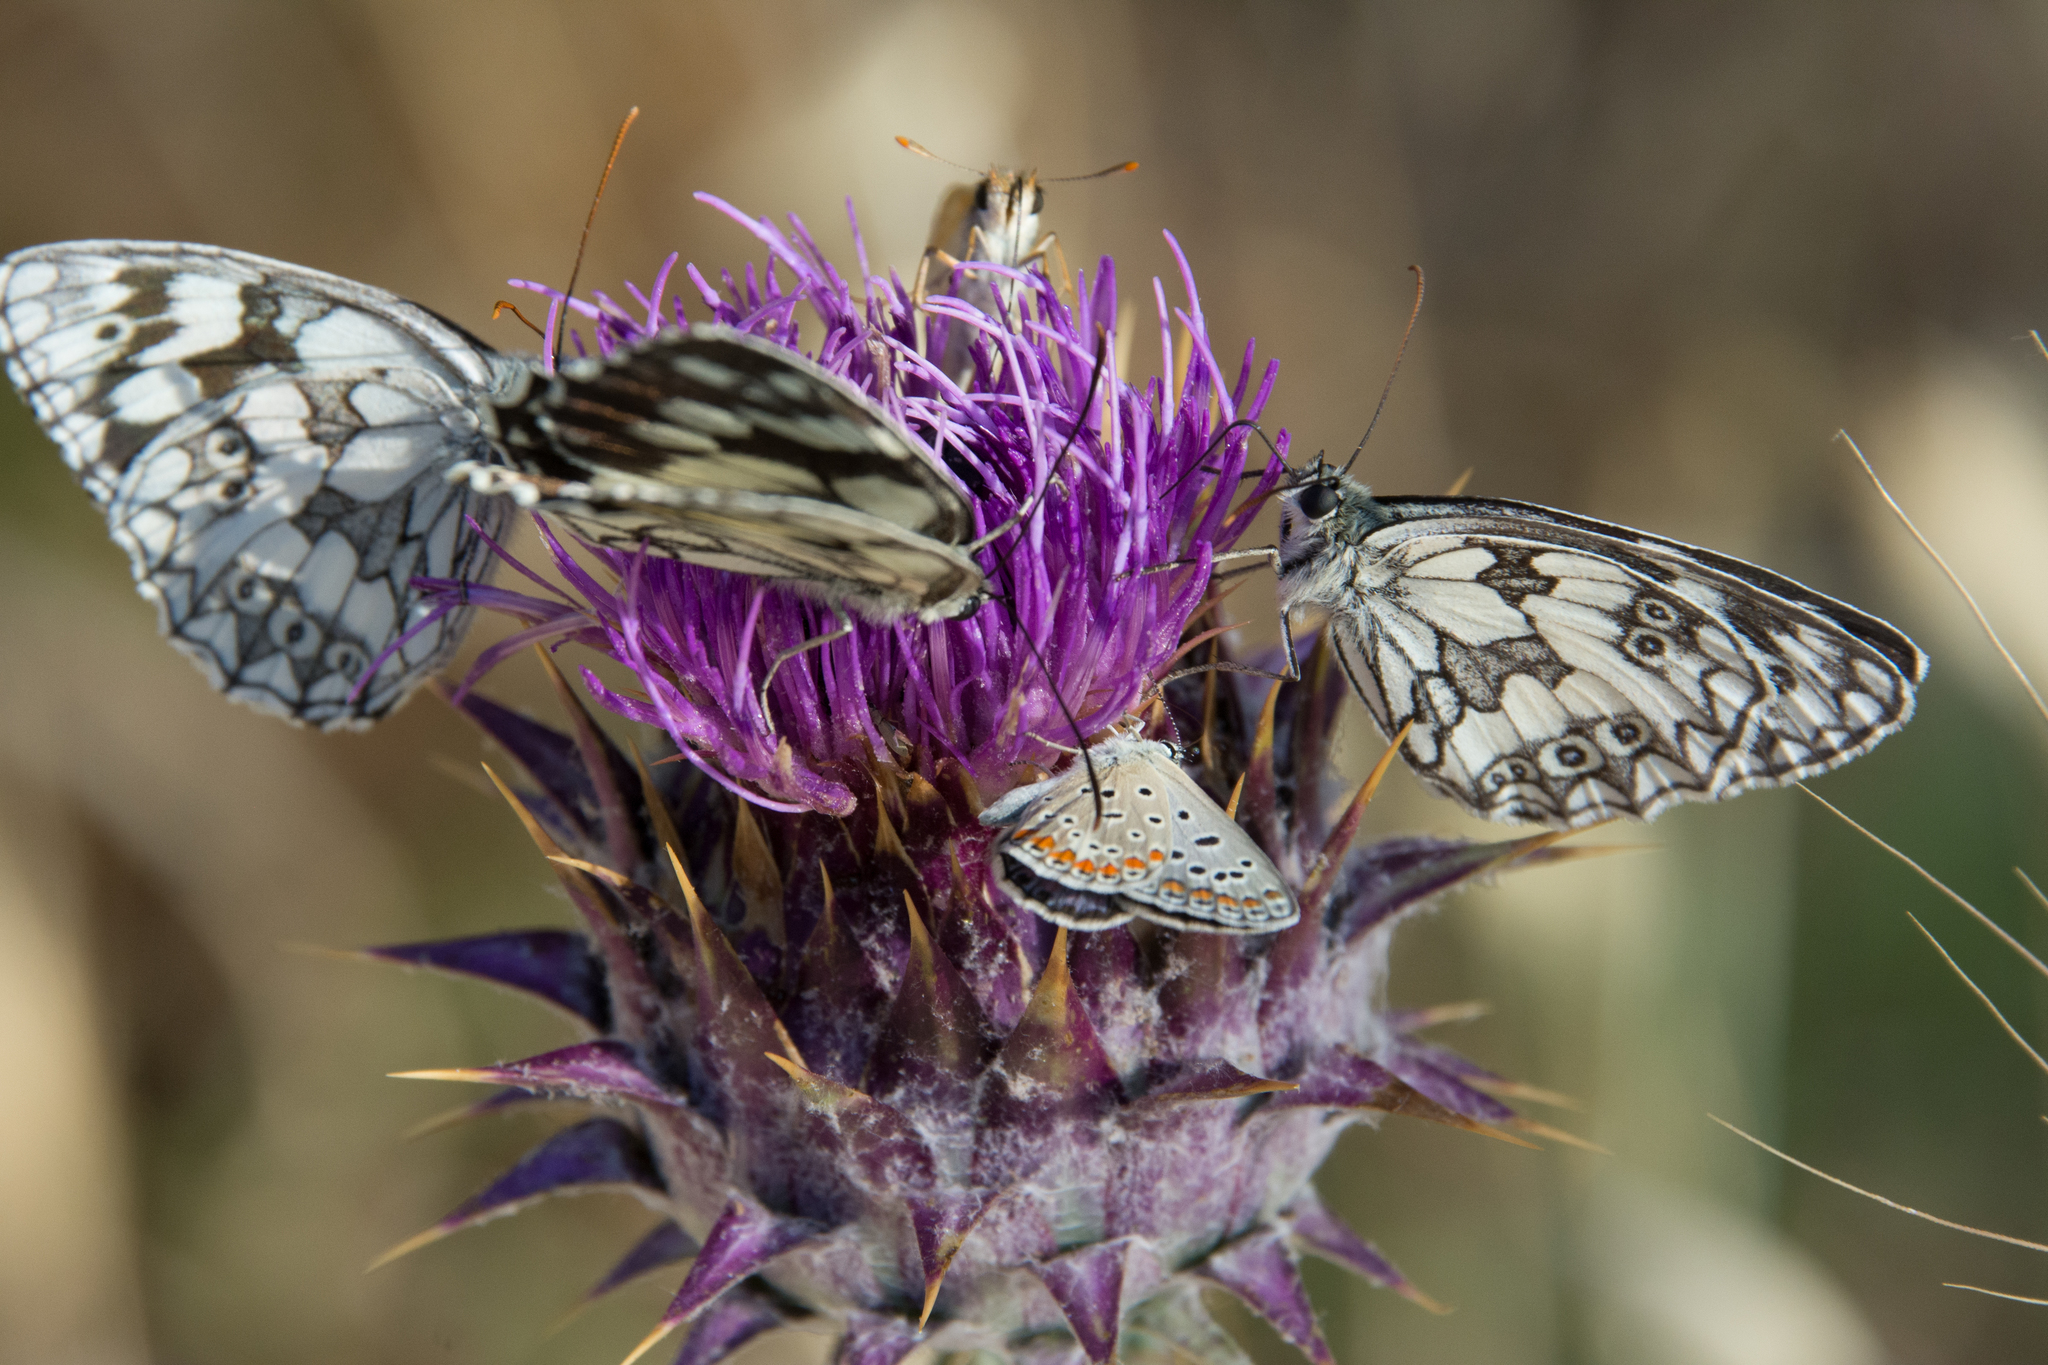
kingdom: Animalia
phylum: Arthropoda
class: Insecta
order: Lepidoptera
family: Nymphalidae
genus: Melanargia
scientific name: Melanargia galathea
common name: Marbled white
